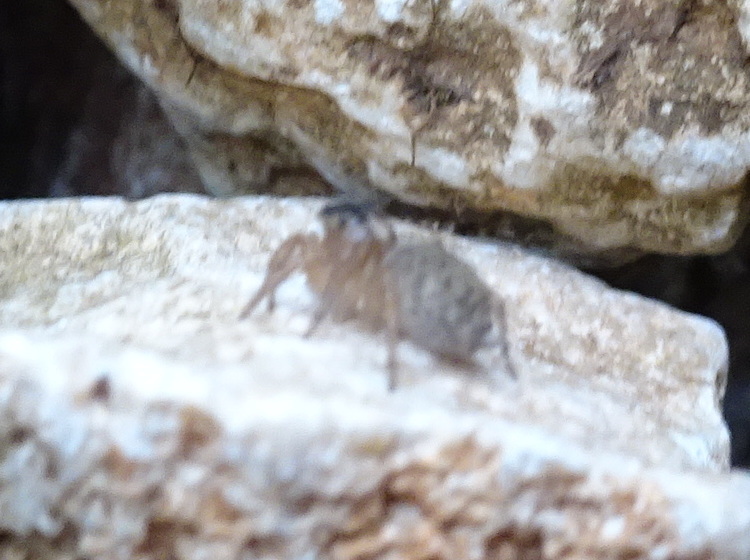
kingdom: Animalia
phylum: Arthropoda
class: Arachnida
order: Araneae
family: Salticidae
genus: Saitis
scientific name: Saitis barbipes
